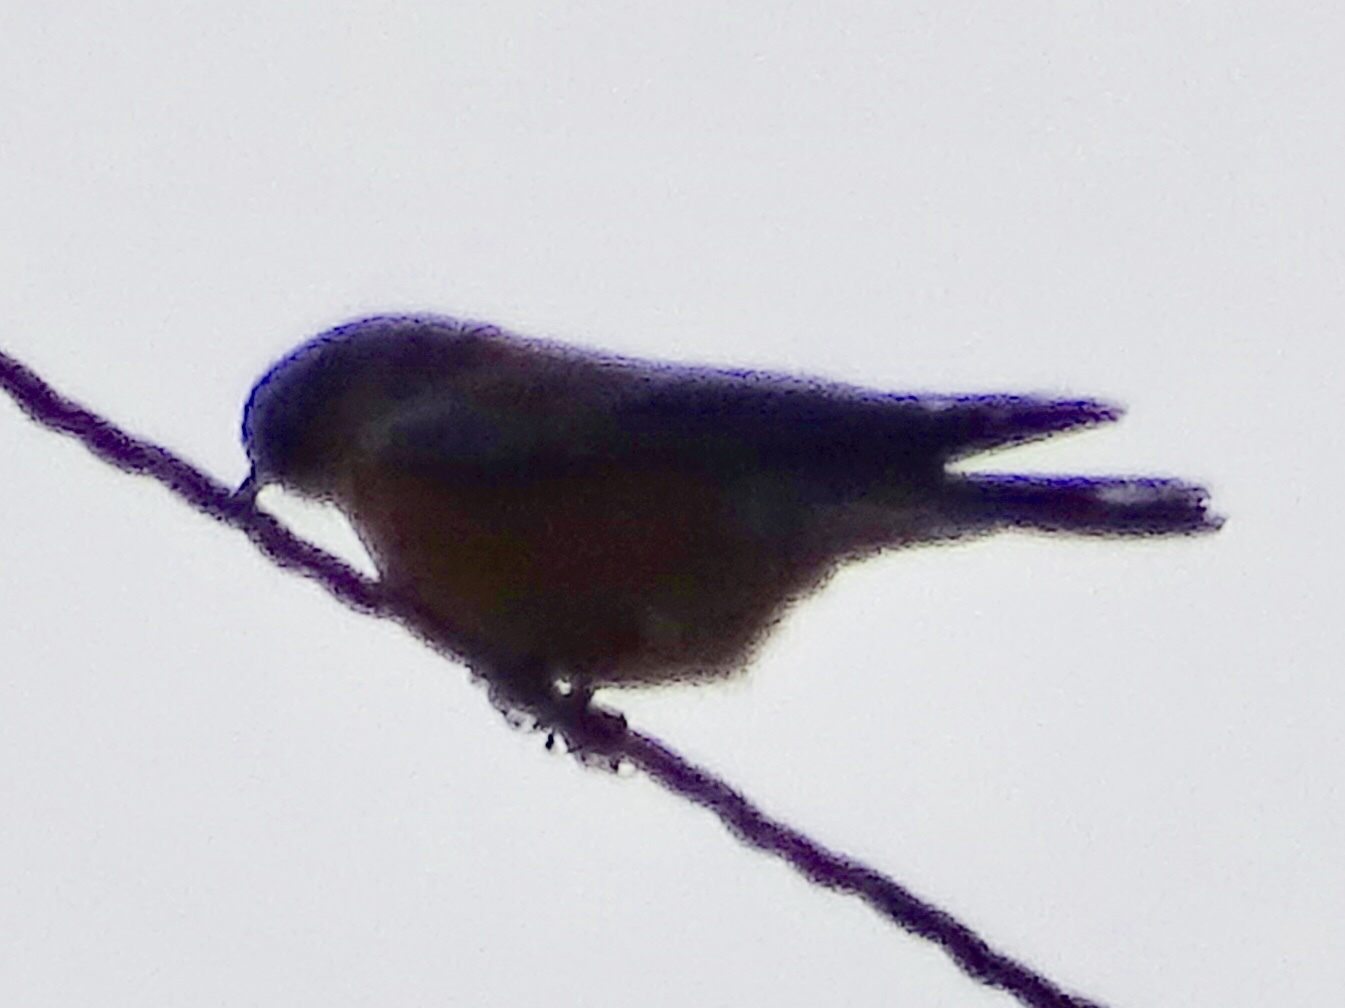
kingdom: Animalia
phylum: Chordata
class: Aves
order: Passeriformes
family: Turdidae
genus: Sialia
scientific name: Sialia mexicana
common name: Western bluebird
